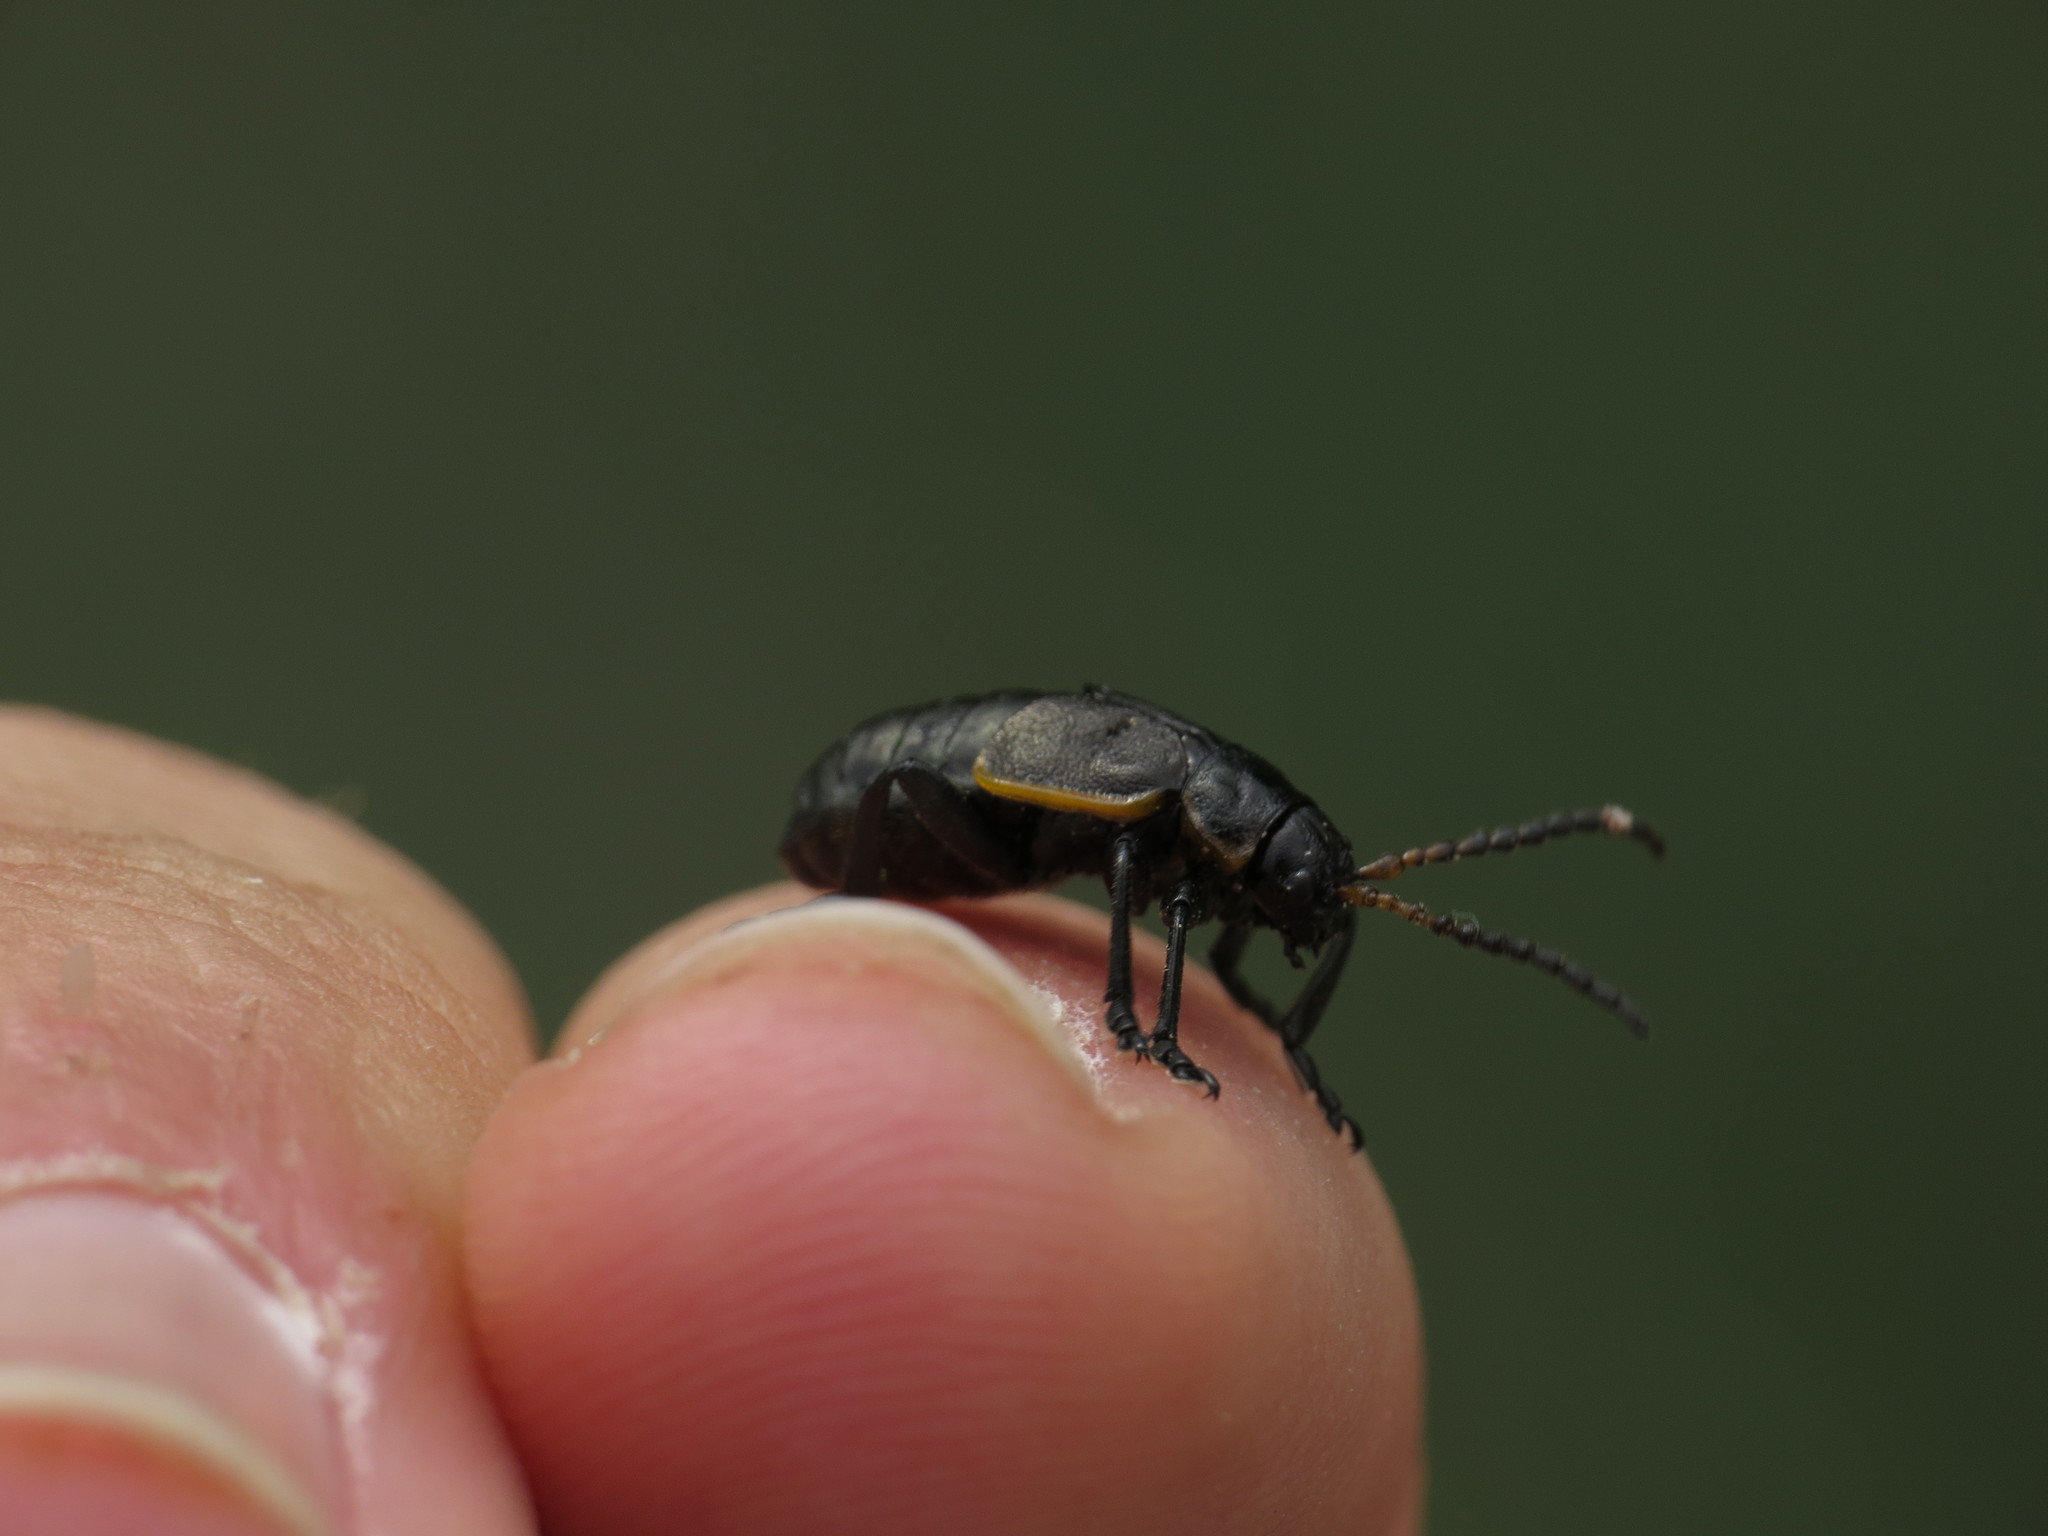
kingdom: Animalia
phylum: Arthropoda
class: Insecta
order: Coleoptera
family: Chrysomelidae
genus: Arima
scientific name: Arima marginata
